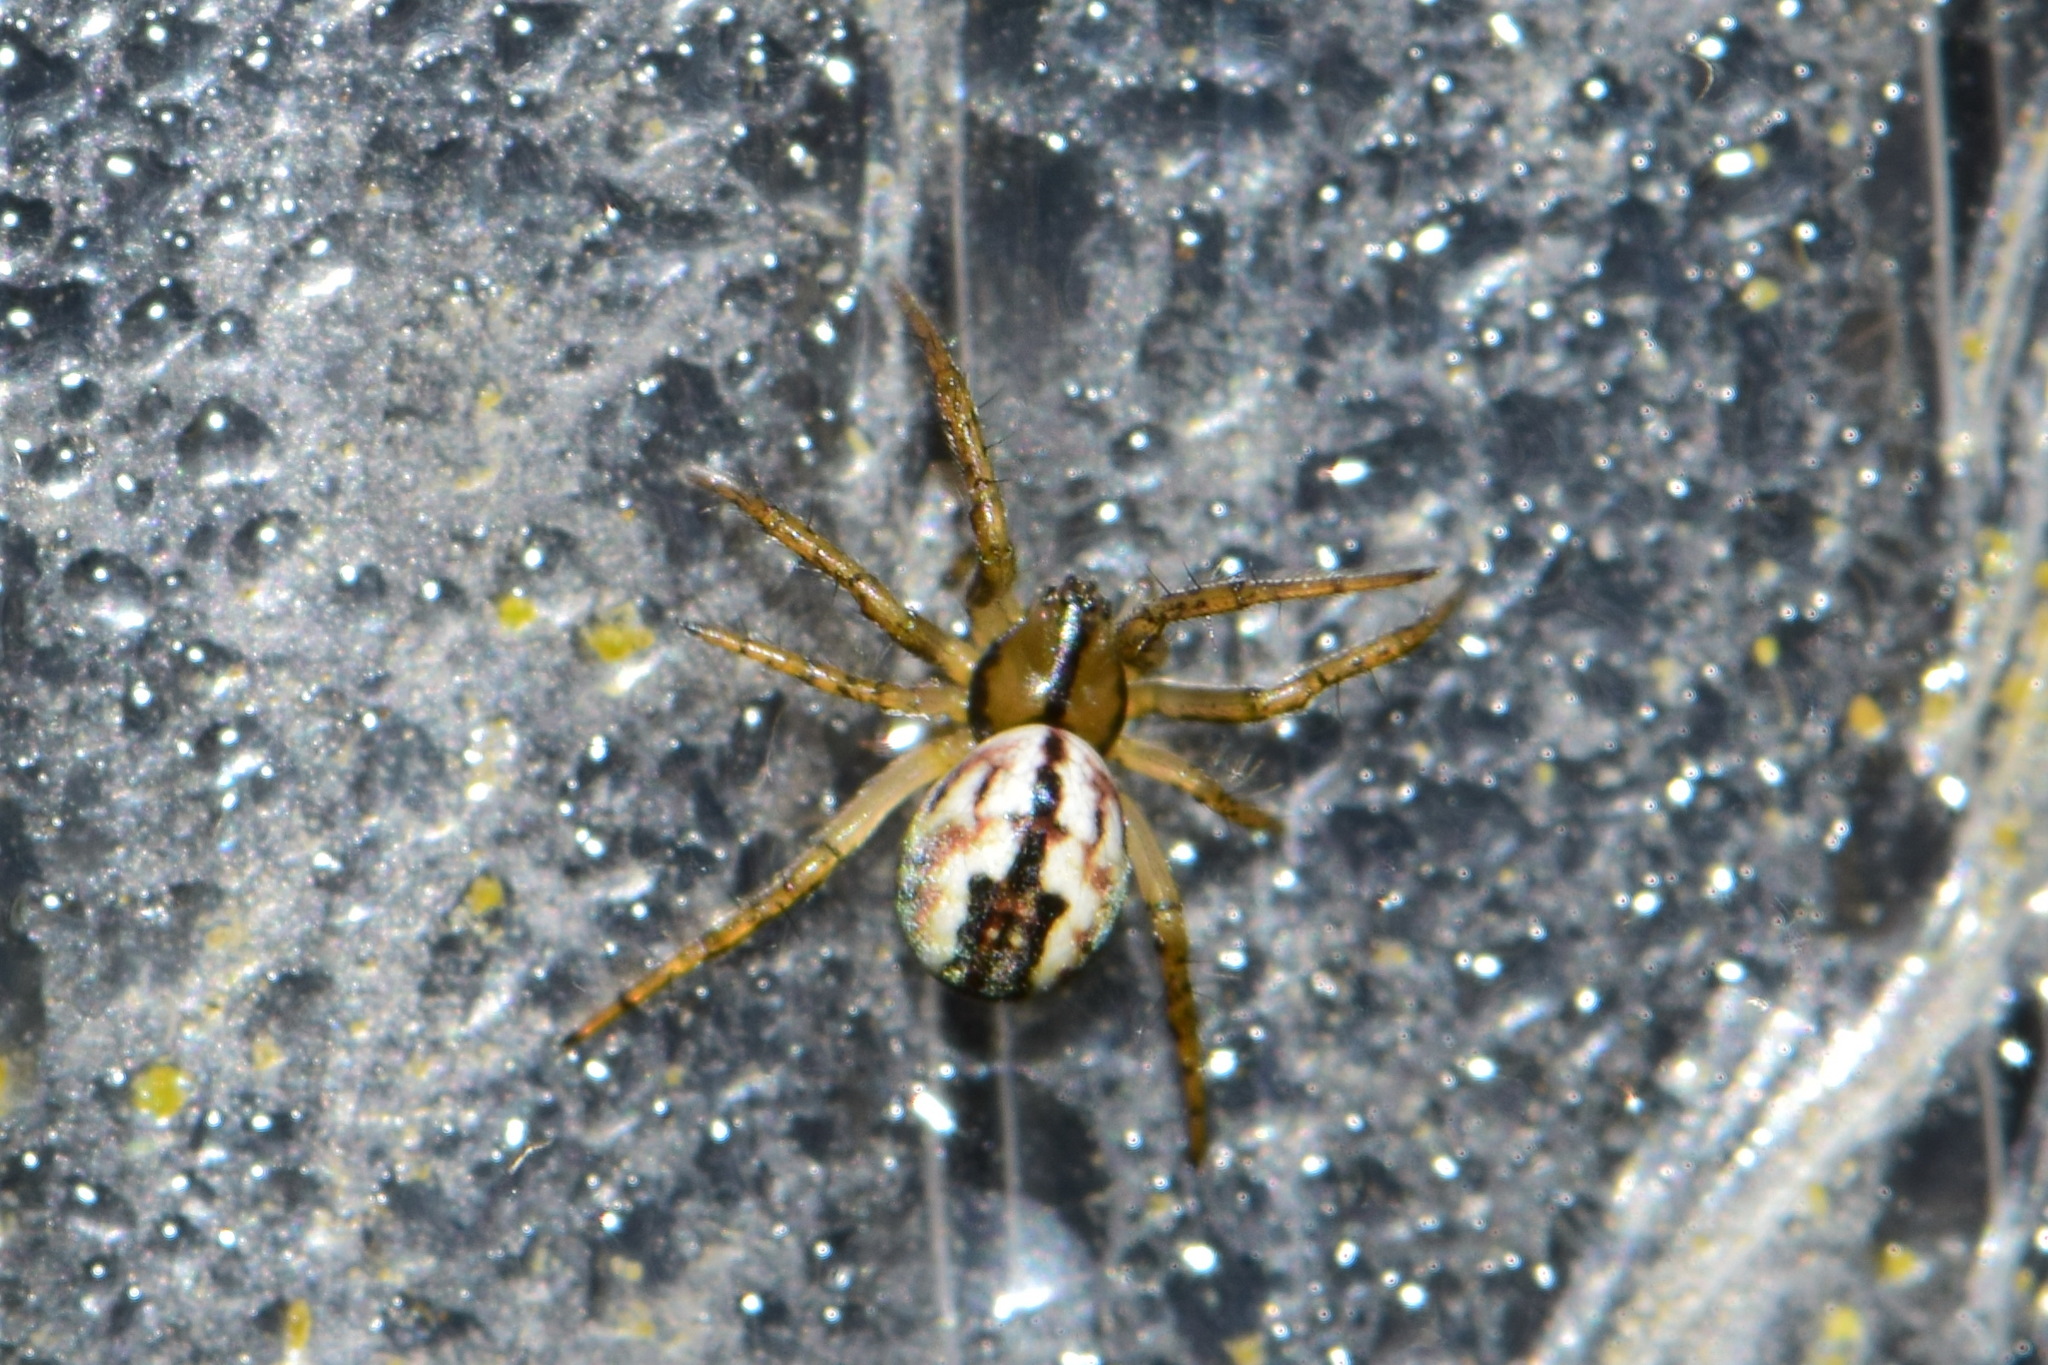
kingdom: Animalia
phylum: Arthropoda
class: Arachnida
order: Araneae
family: Araneidae
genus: Mangora
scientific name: Mangora acalypha
